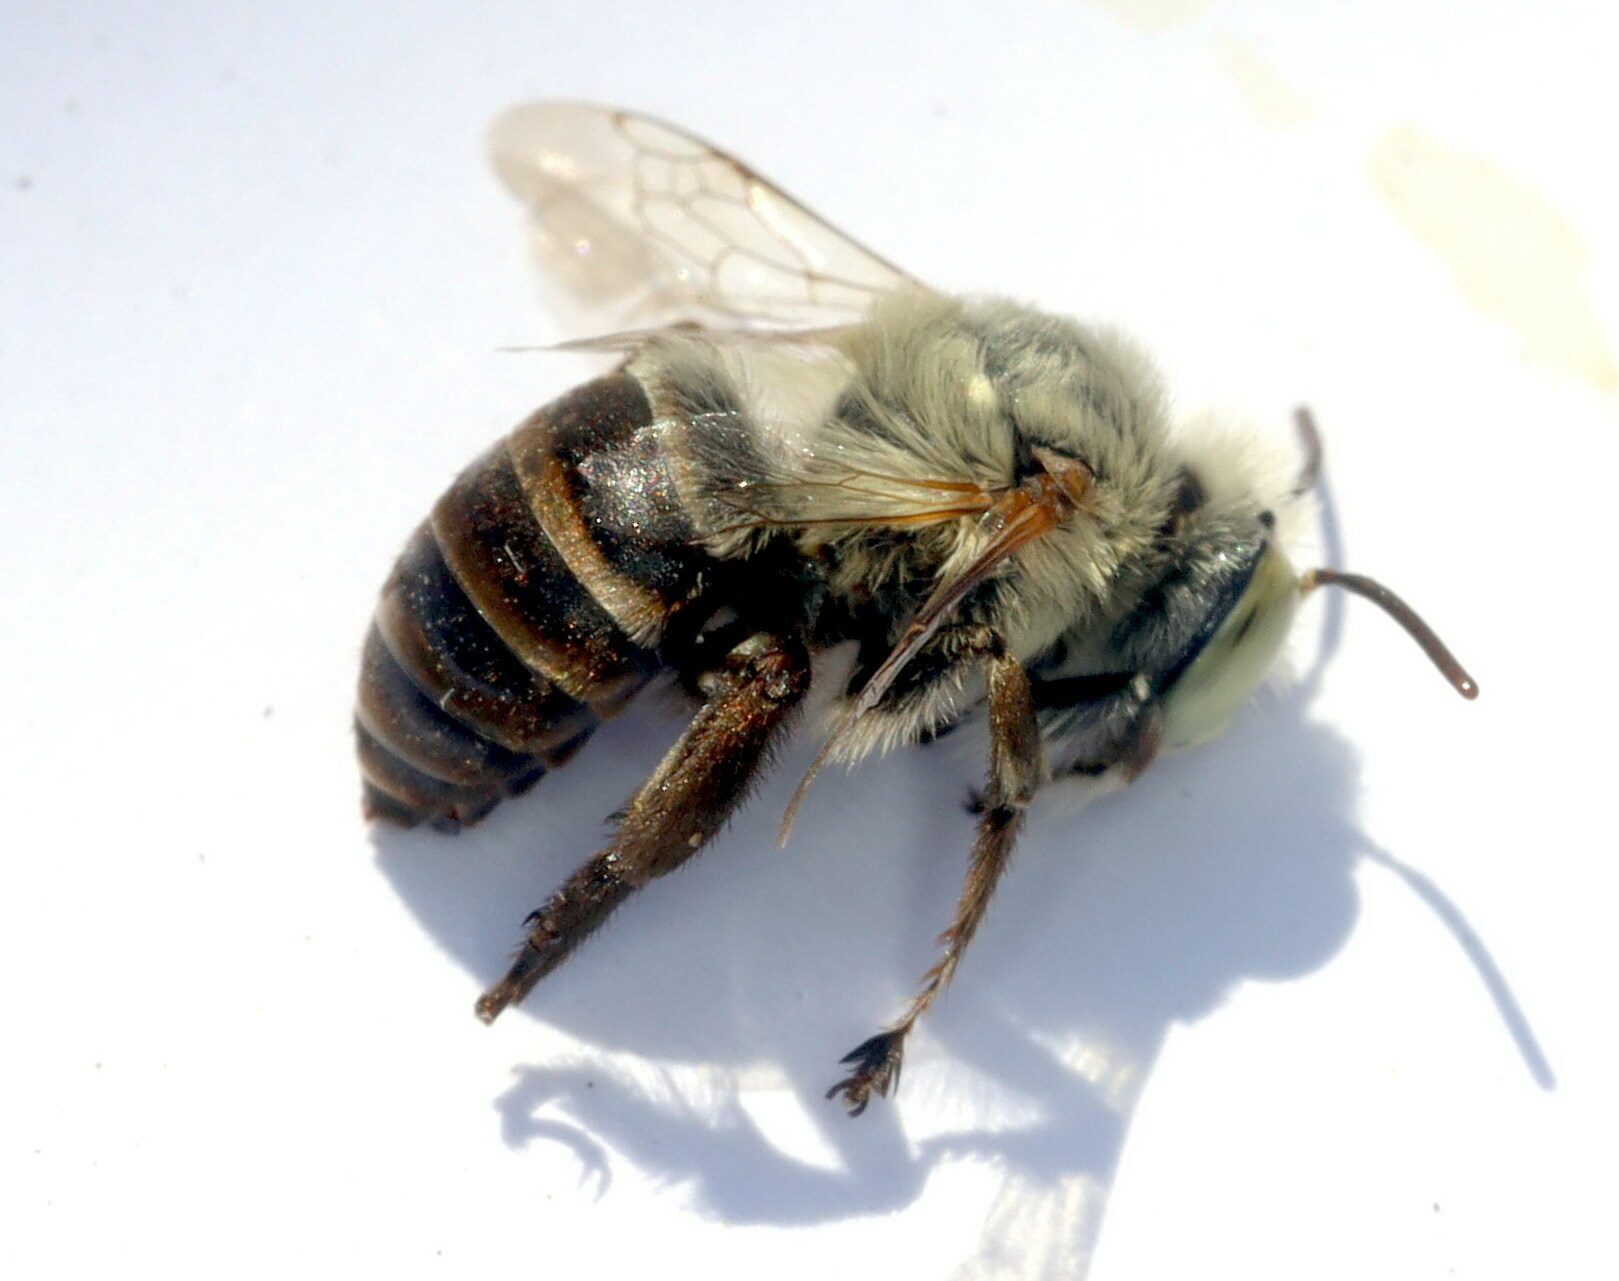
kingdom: Animalia
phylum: Arthropoda
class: Insecta
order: Hymenoptera
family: Apidae
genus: Anthophora
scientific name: Anthophora fulvodimidiata
